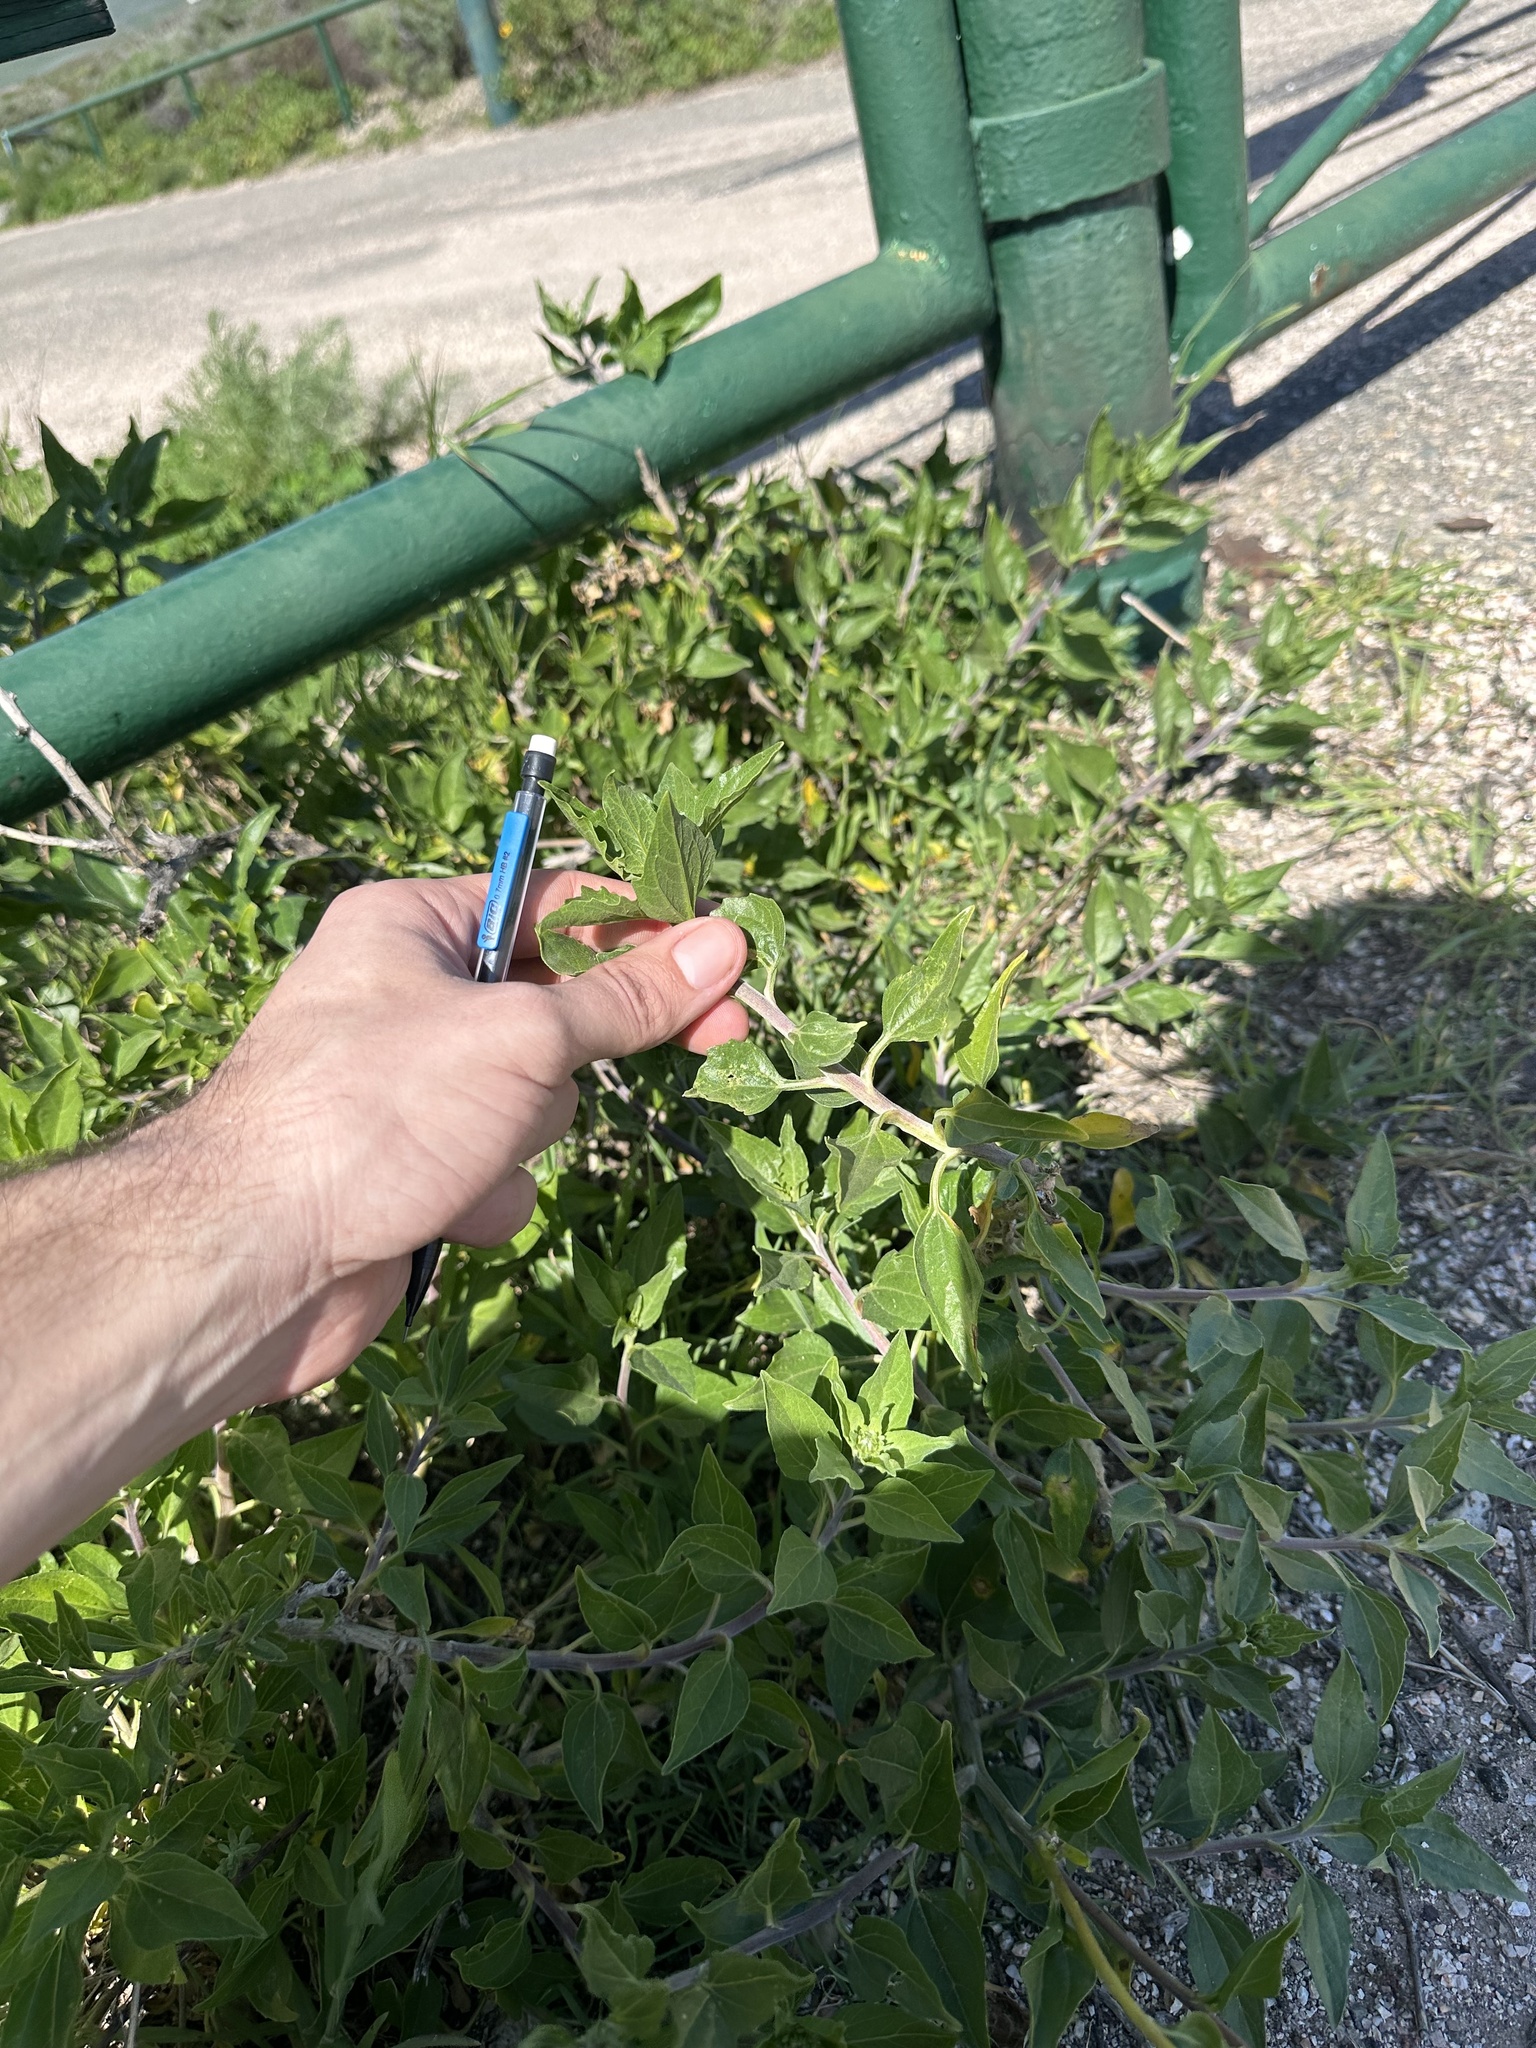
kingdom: Plantae
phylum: Tracheophyta
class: Magnoliopsida
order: Asterales
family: Asteraceae
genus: Encelia
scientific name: Encelia californica
